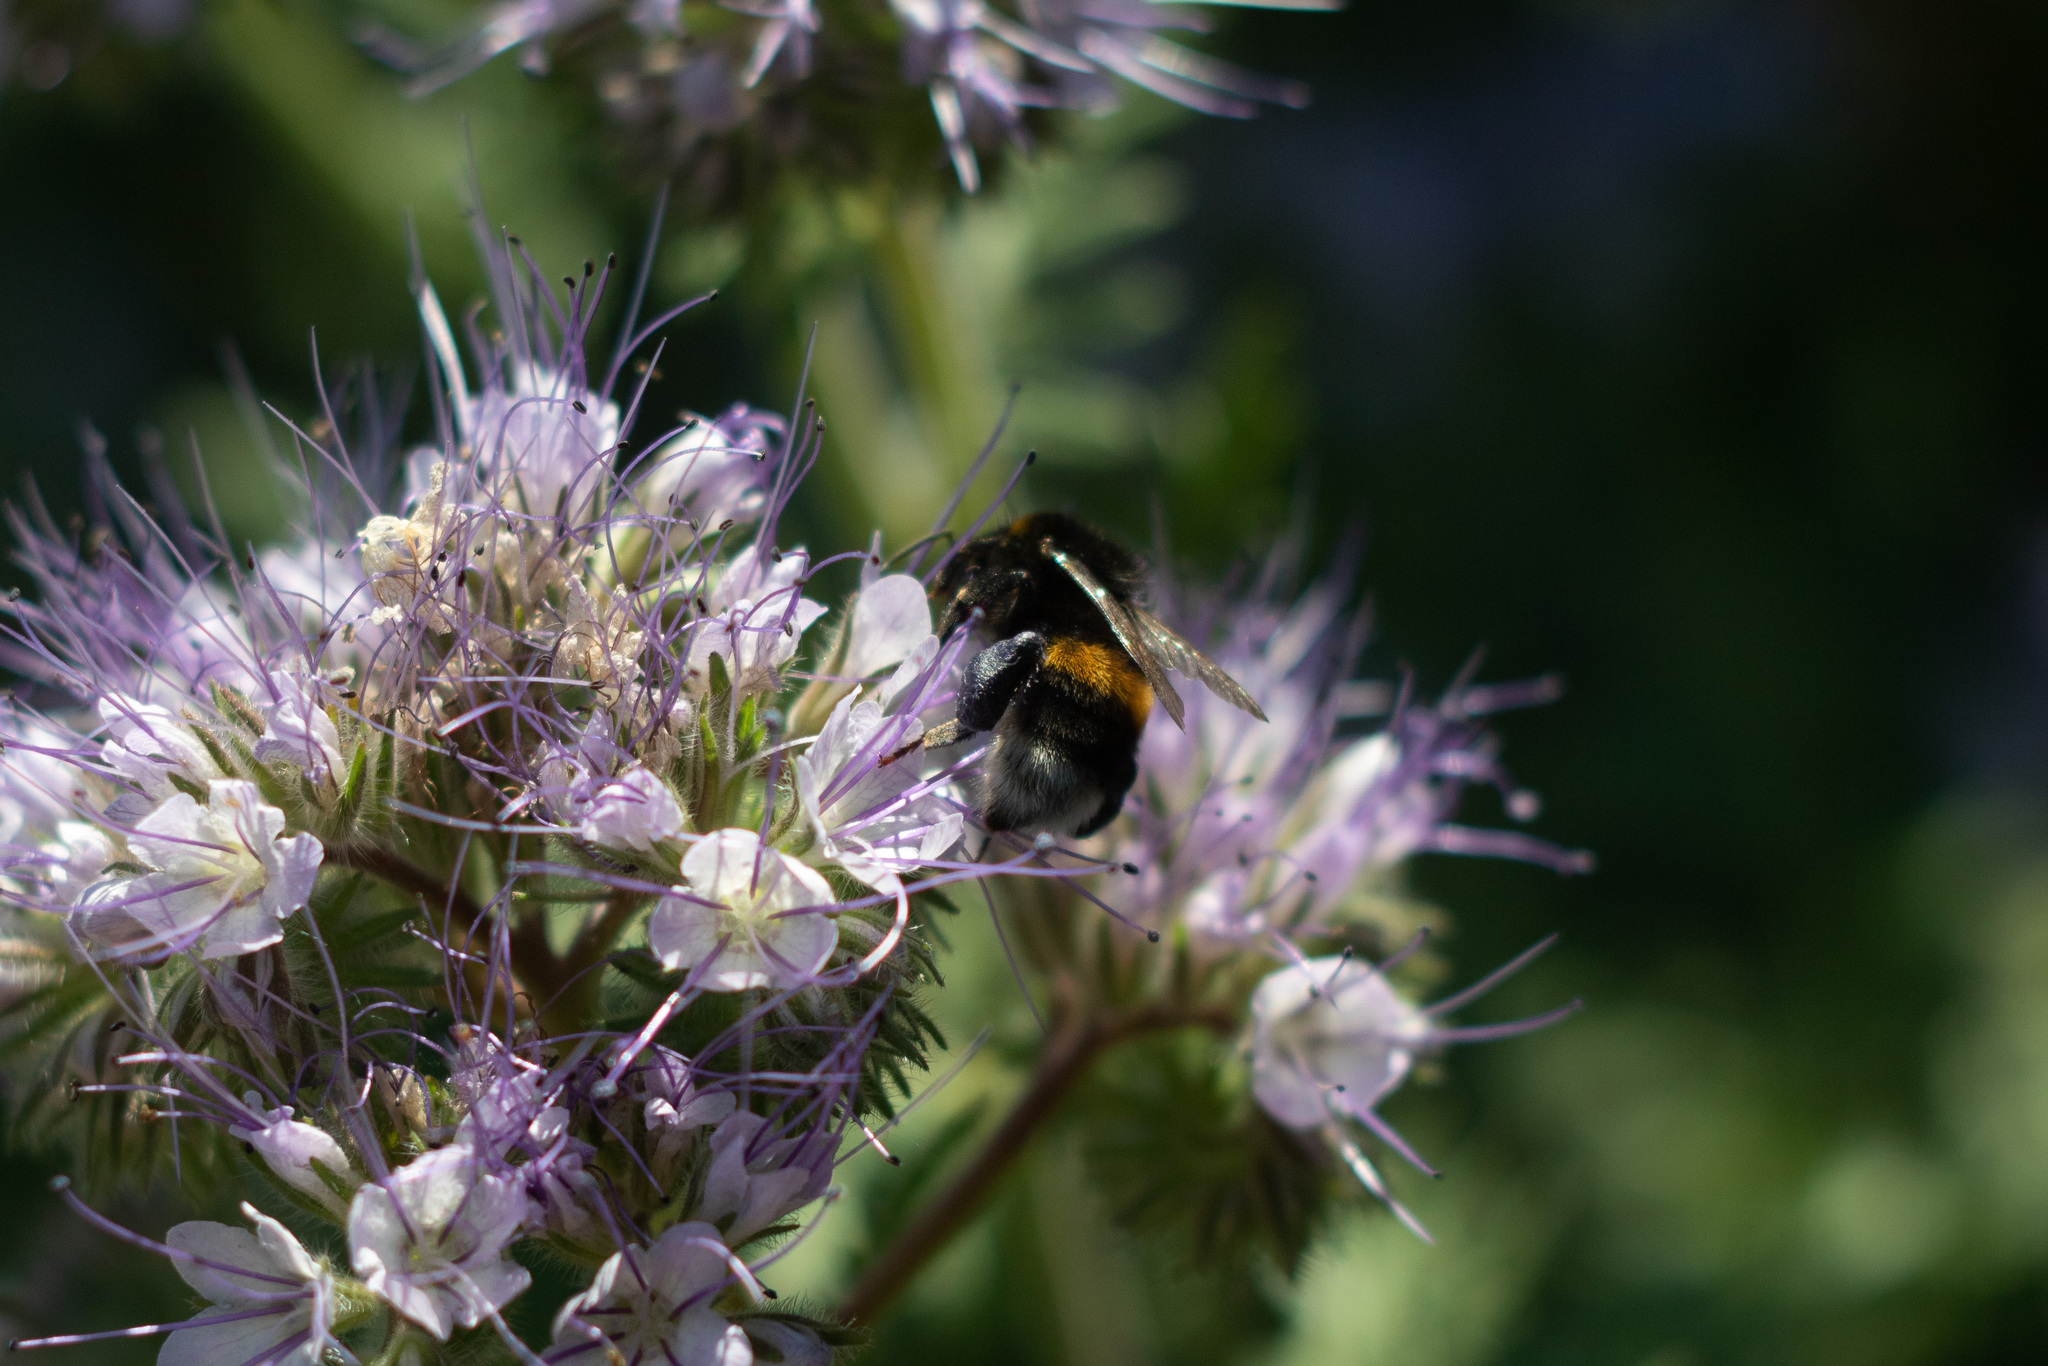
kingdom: Animalia
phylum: Arthropoda
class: Insecta
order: Hymenoptera
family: Apidae
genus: Bombus
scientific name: Bombus
